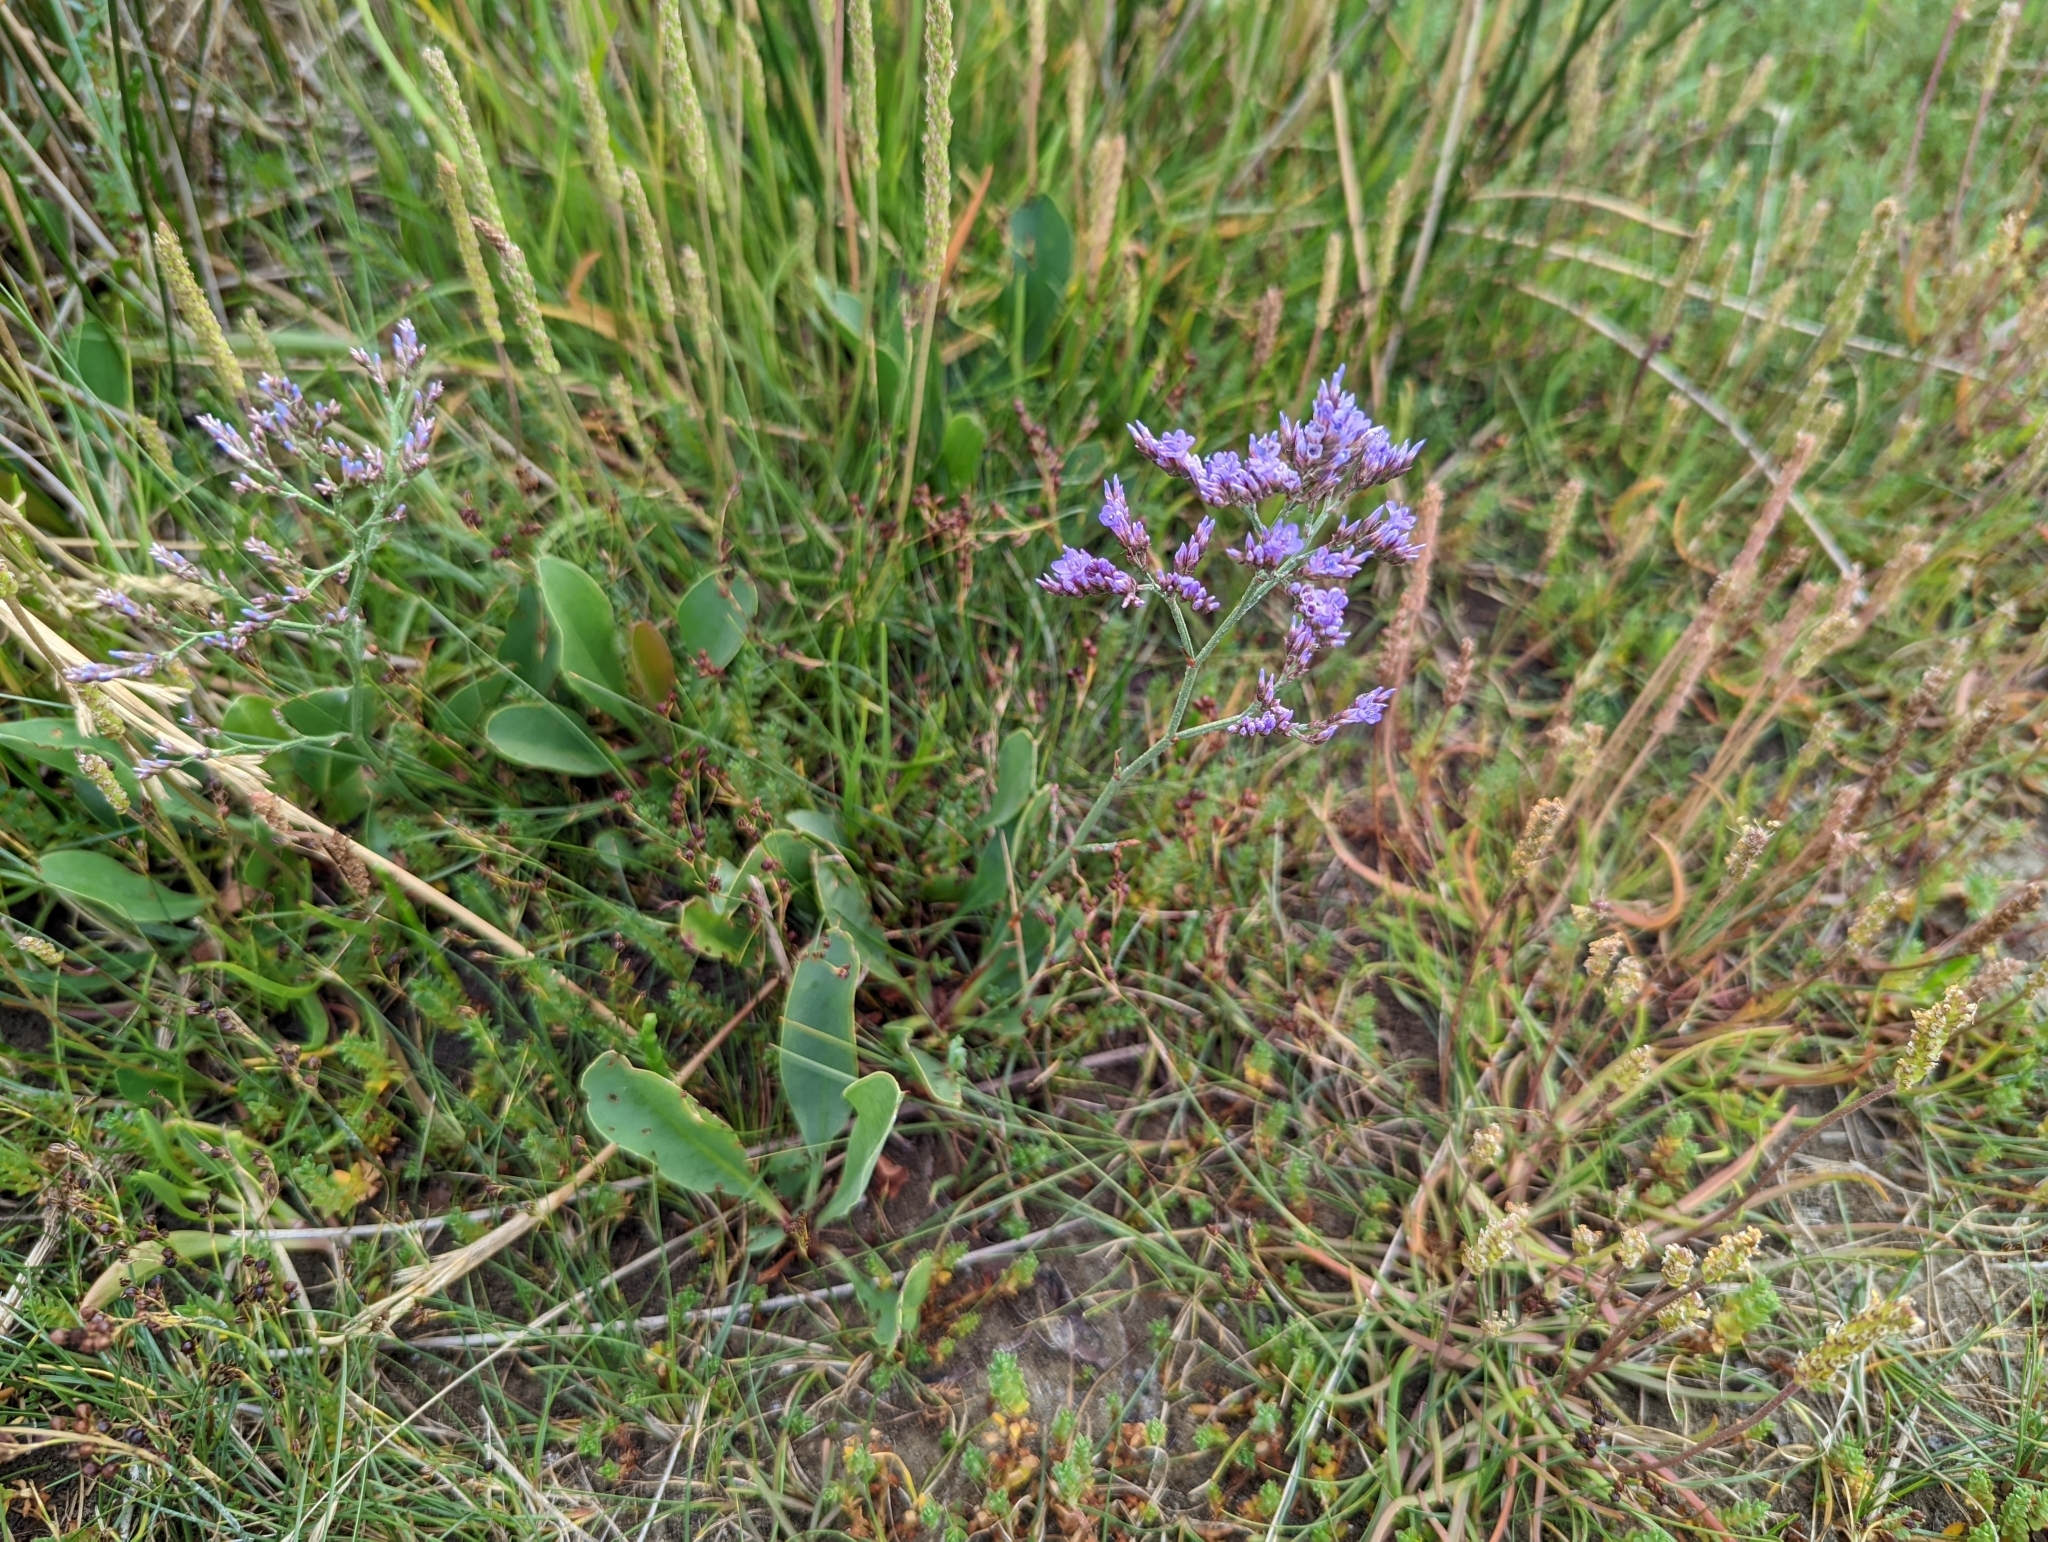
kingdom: Plantae
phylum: Tracheophyta
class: Magnoliopsida
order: Caryophyllales
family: Plumbaginaceae
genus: Limonium
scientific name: Limonium vulgare
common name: Common sea-lavender
